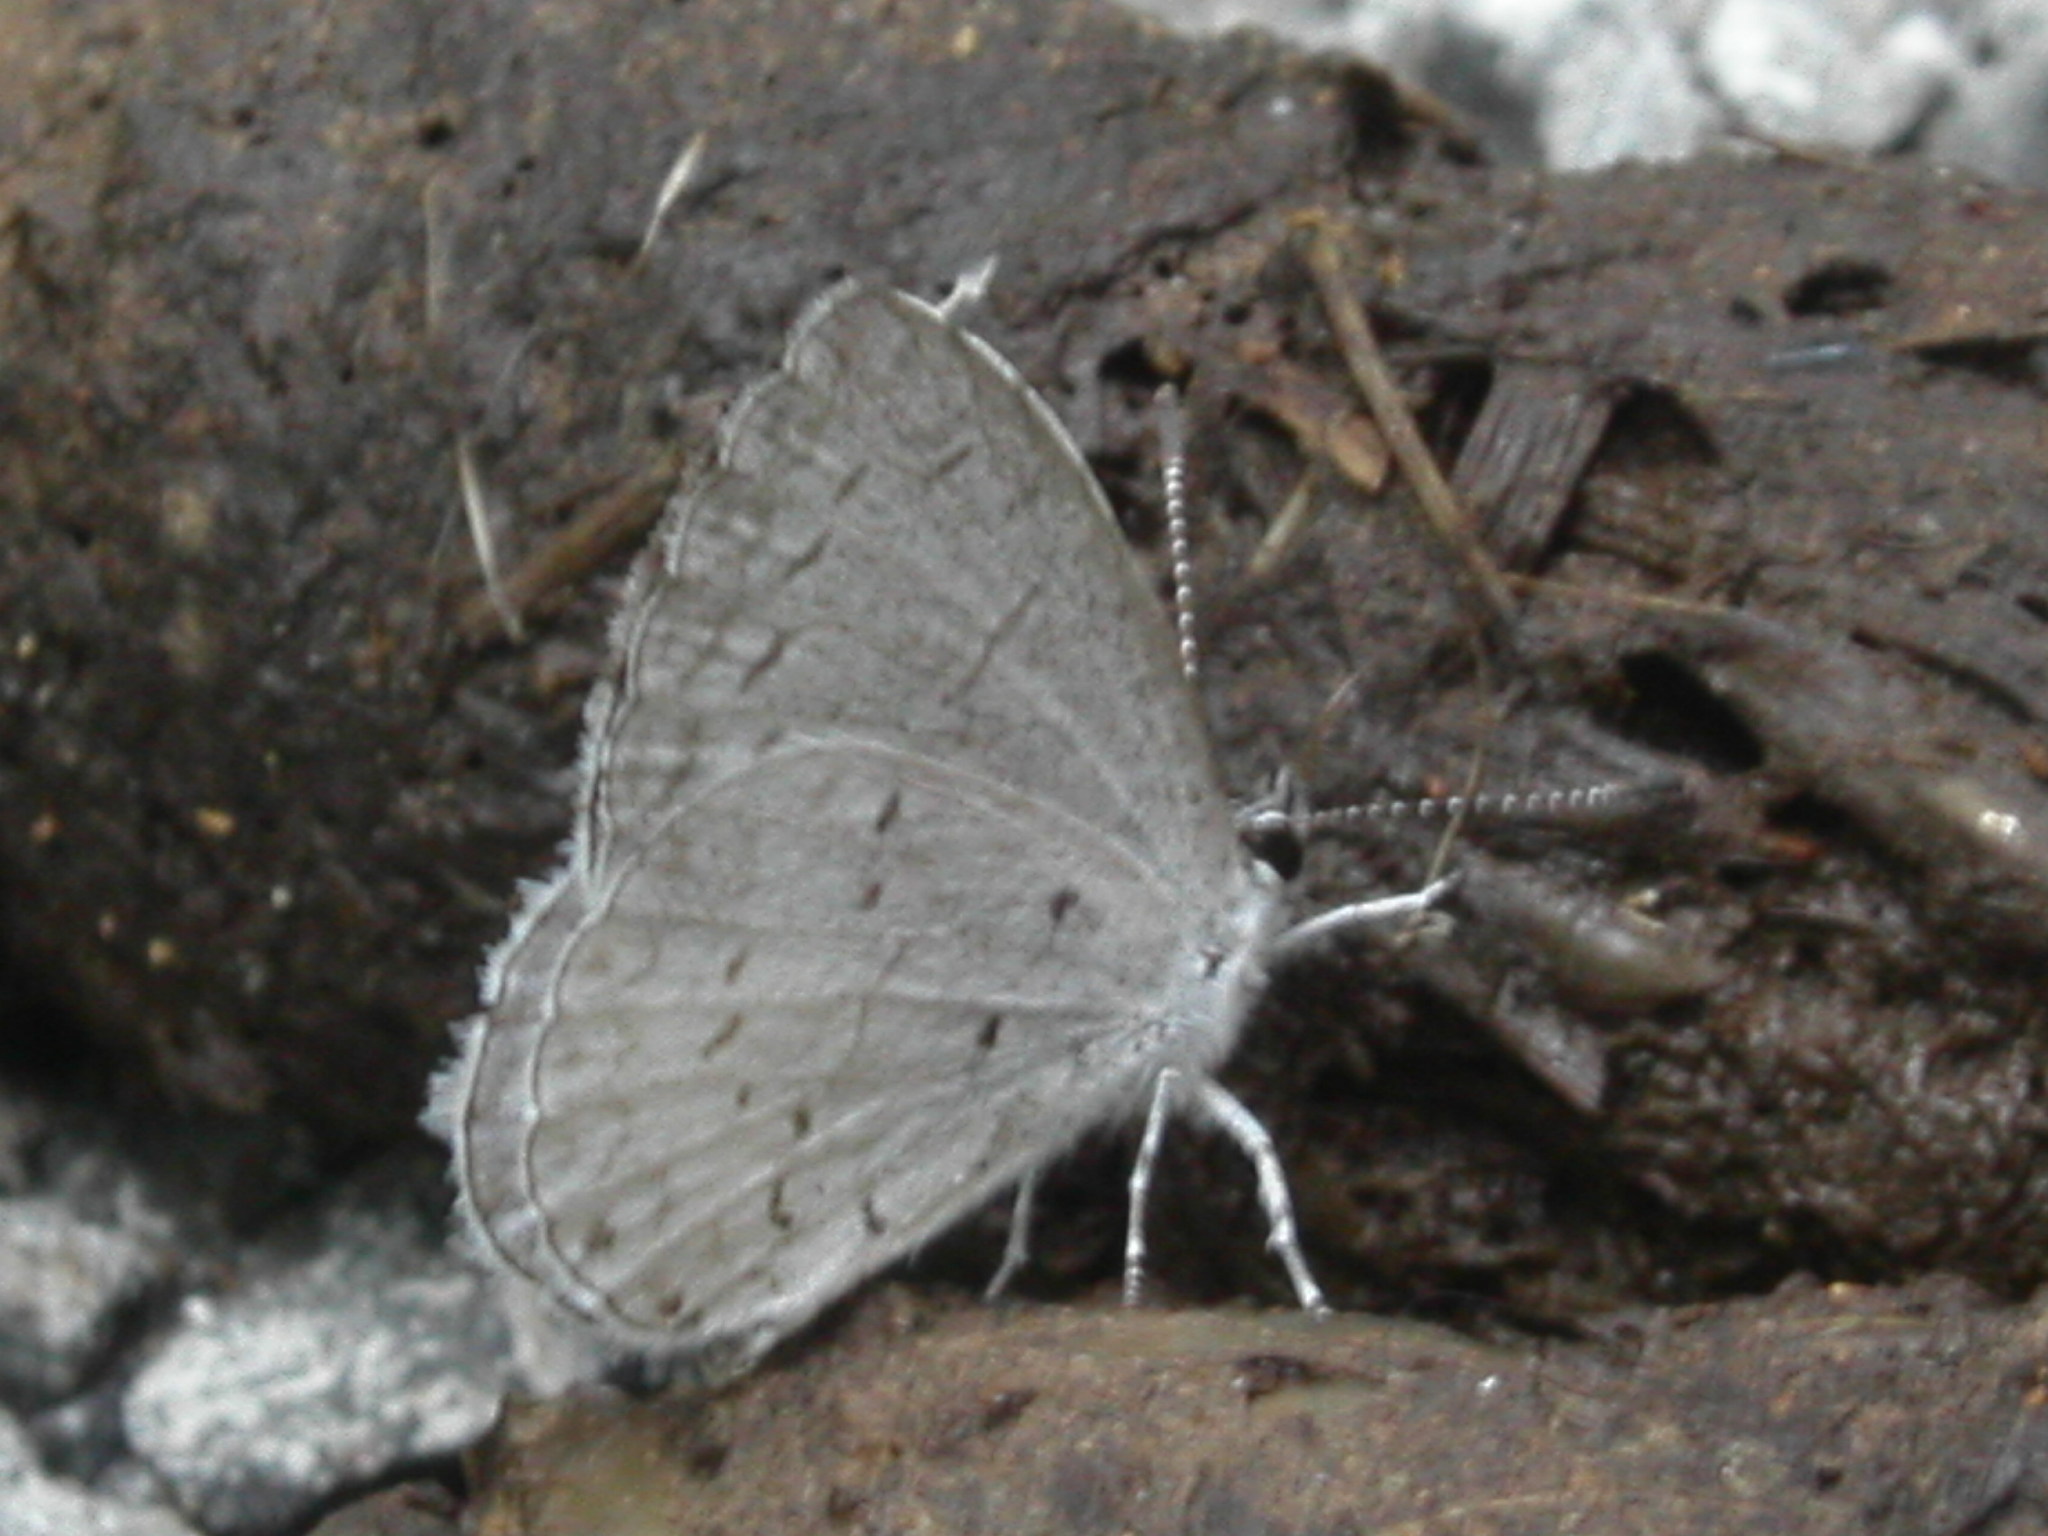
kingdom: Animalia
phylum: Arthropoda
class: Insecta
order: Lepidoptera
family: Lycaenidae
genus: Cyaniris
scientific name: Cyaniris neglecta
